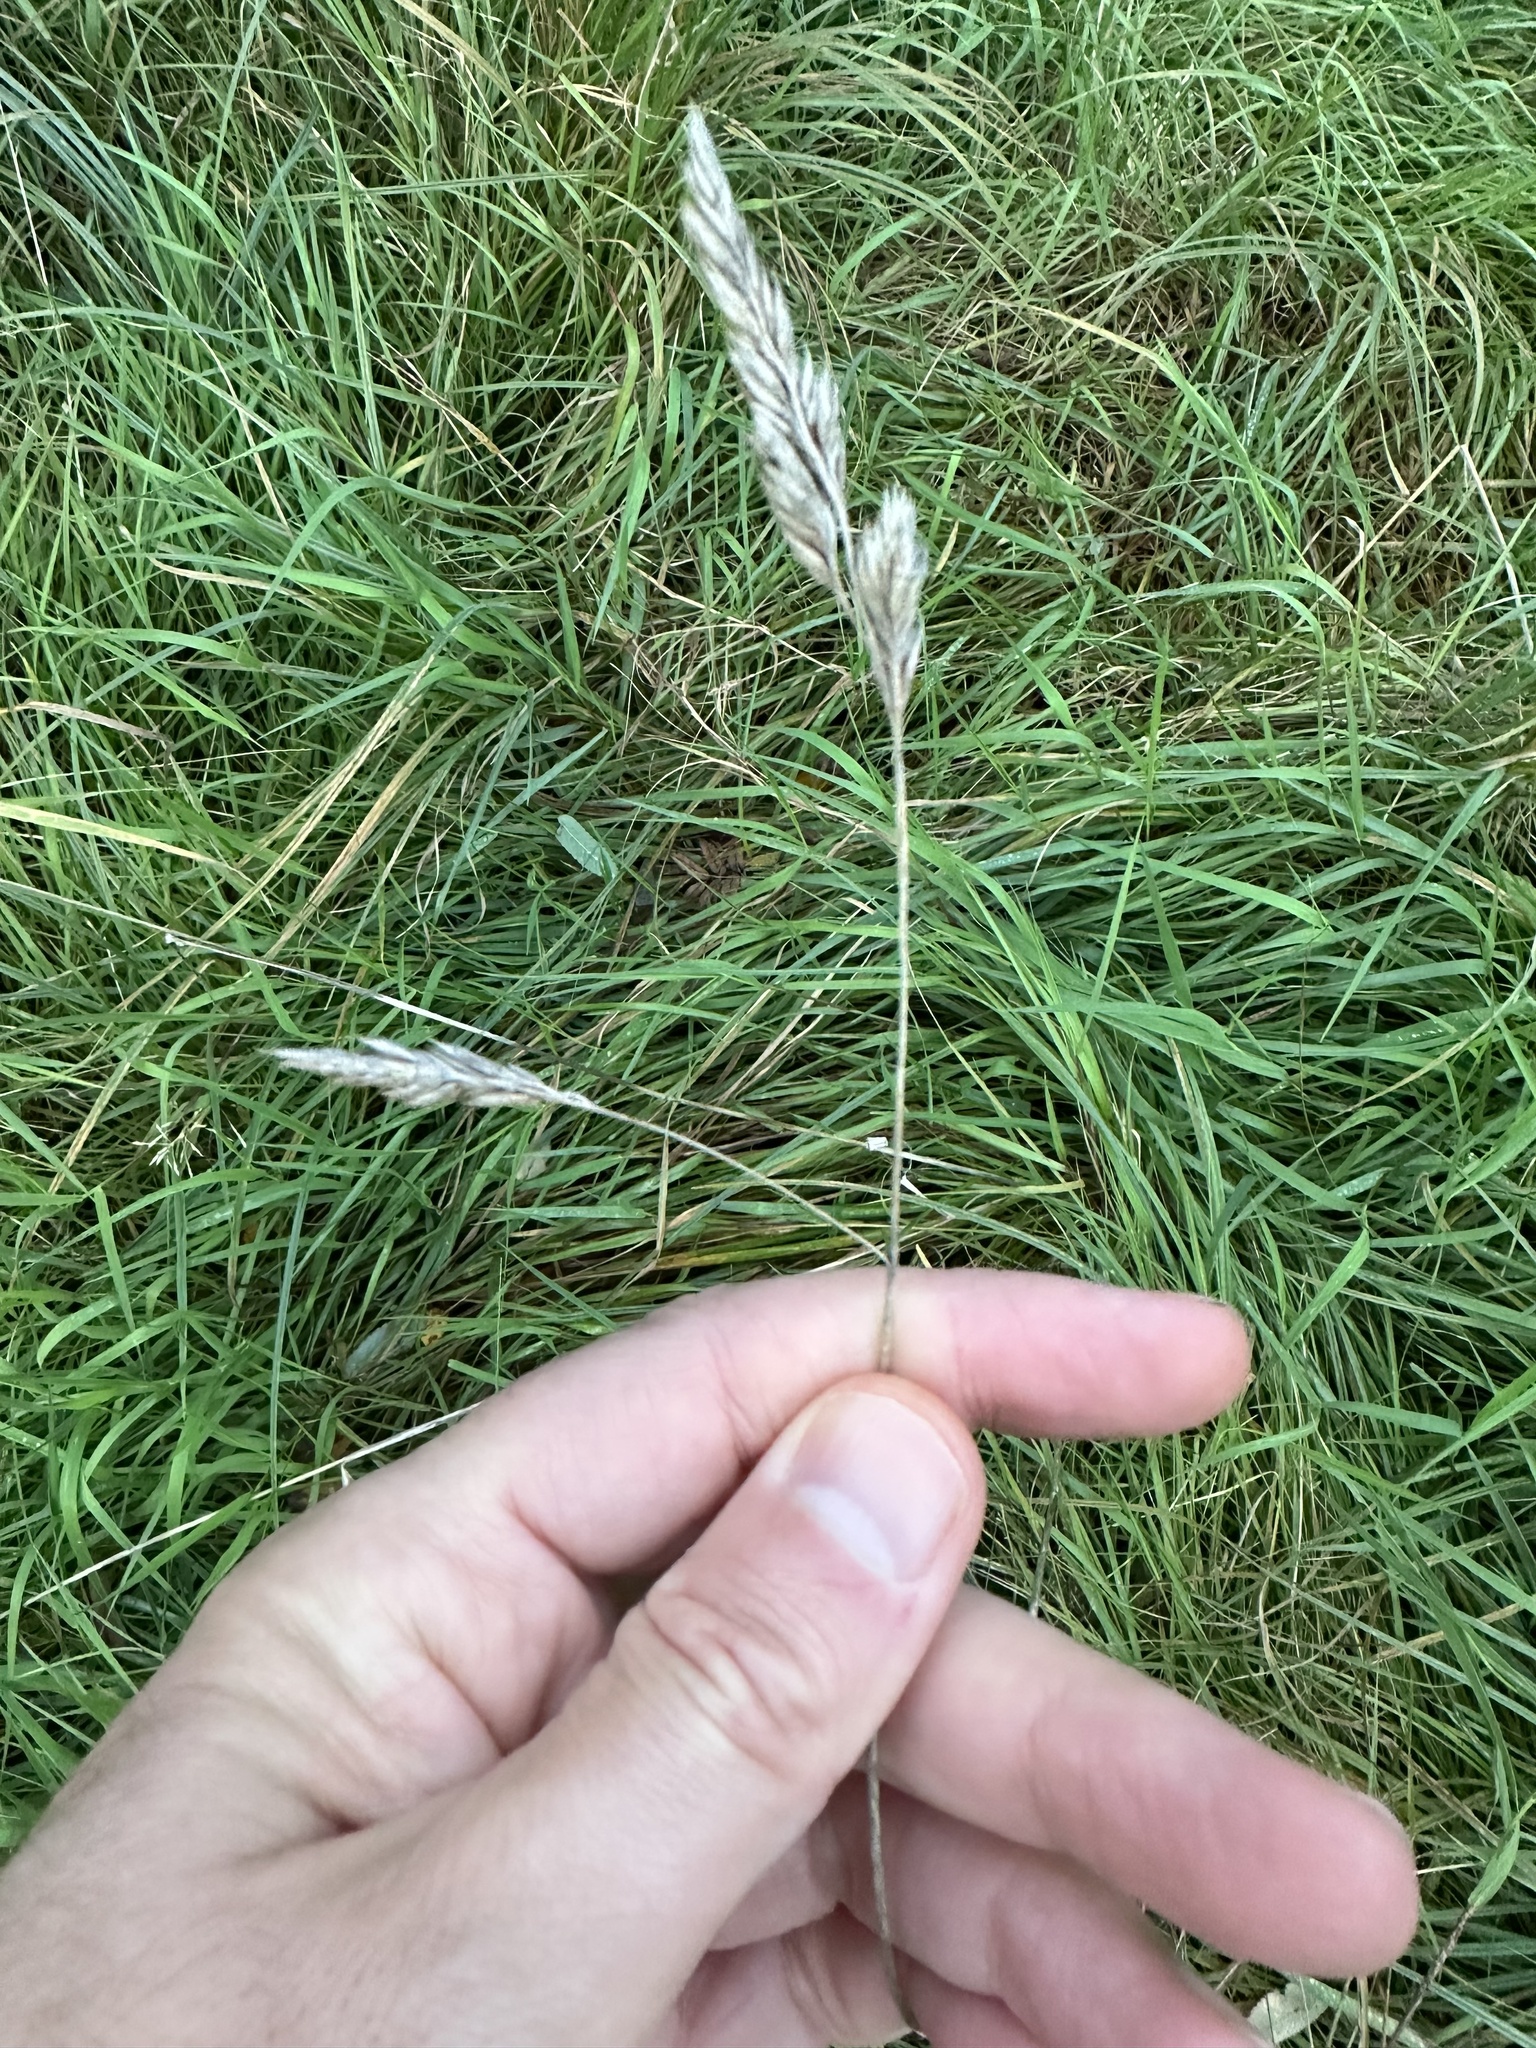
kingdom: Plantae
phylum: Tracheophyta
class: Liliopsida
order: Poales
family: Poaceae
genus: Dactylis
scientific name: Dactylis glomerata
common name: Orchardgrass
